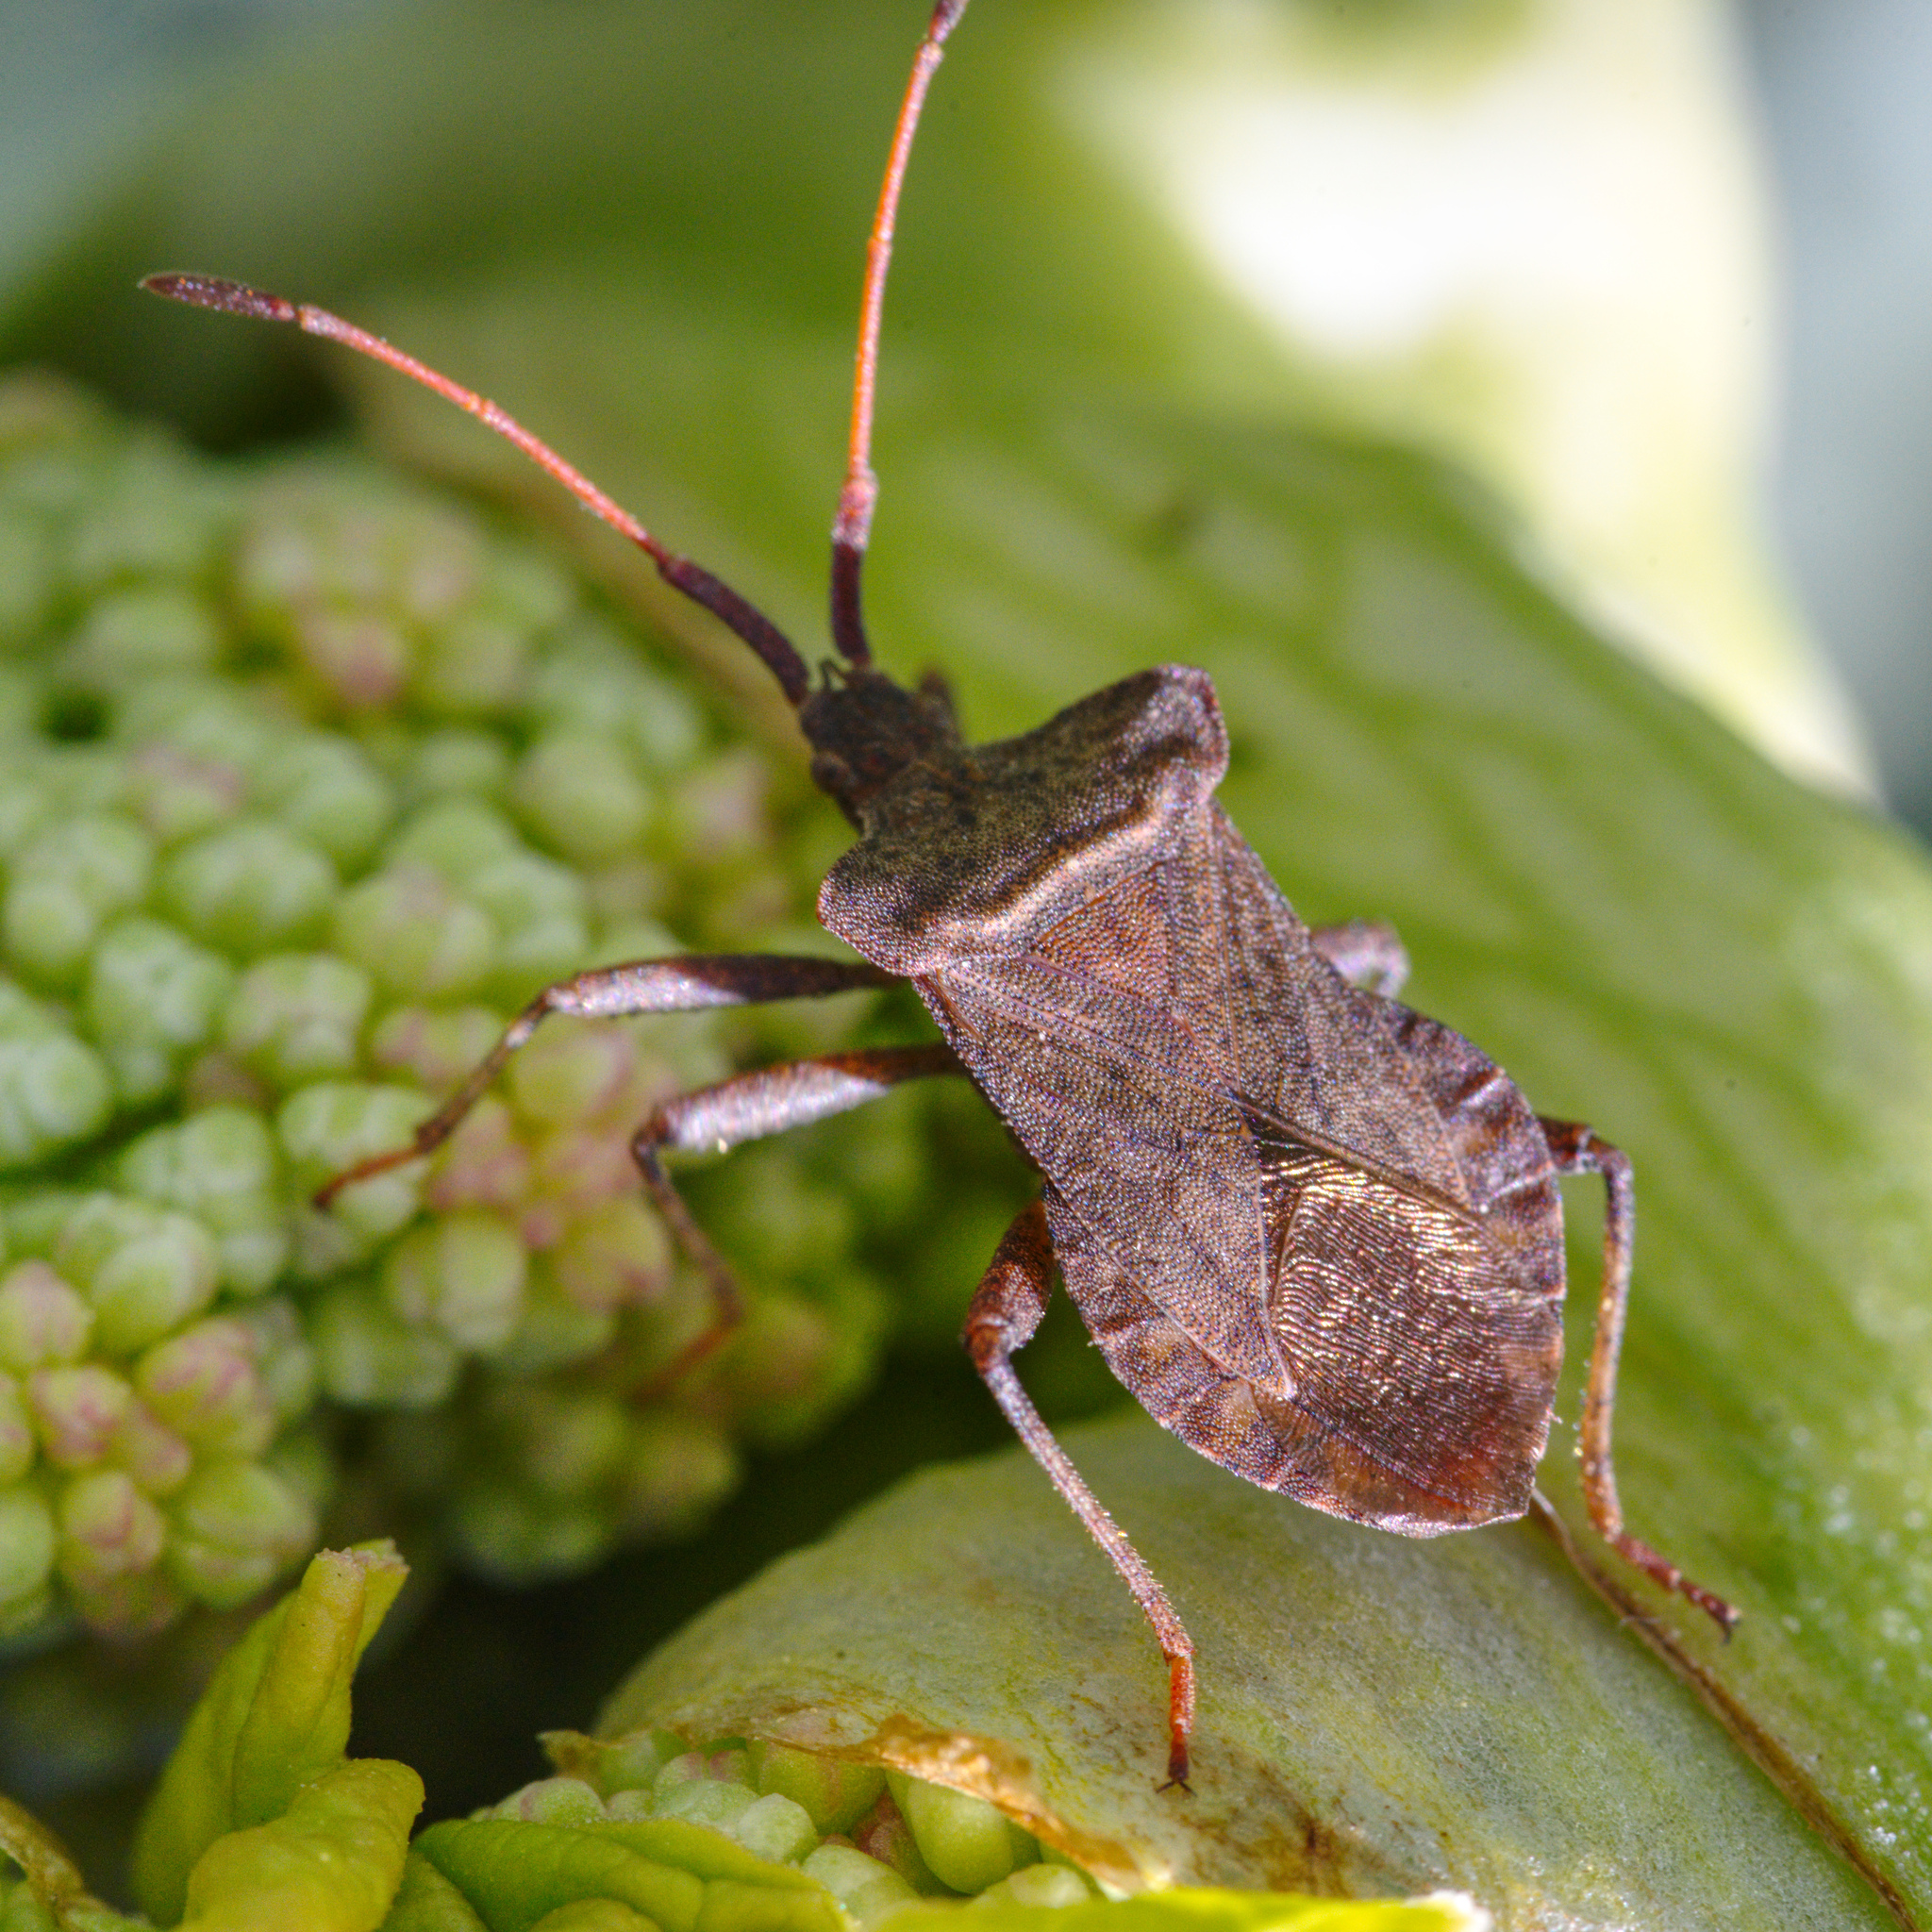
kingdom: Animalia
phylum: Arthropoda
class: Insecta
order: Hemiptera
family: Coreidae
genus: Coreus
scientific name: Coreus marginatus
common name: Dock bug
